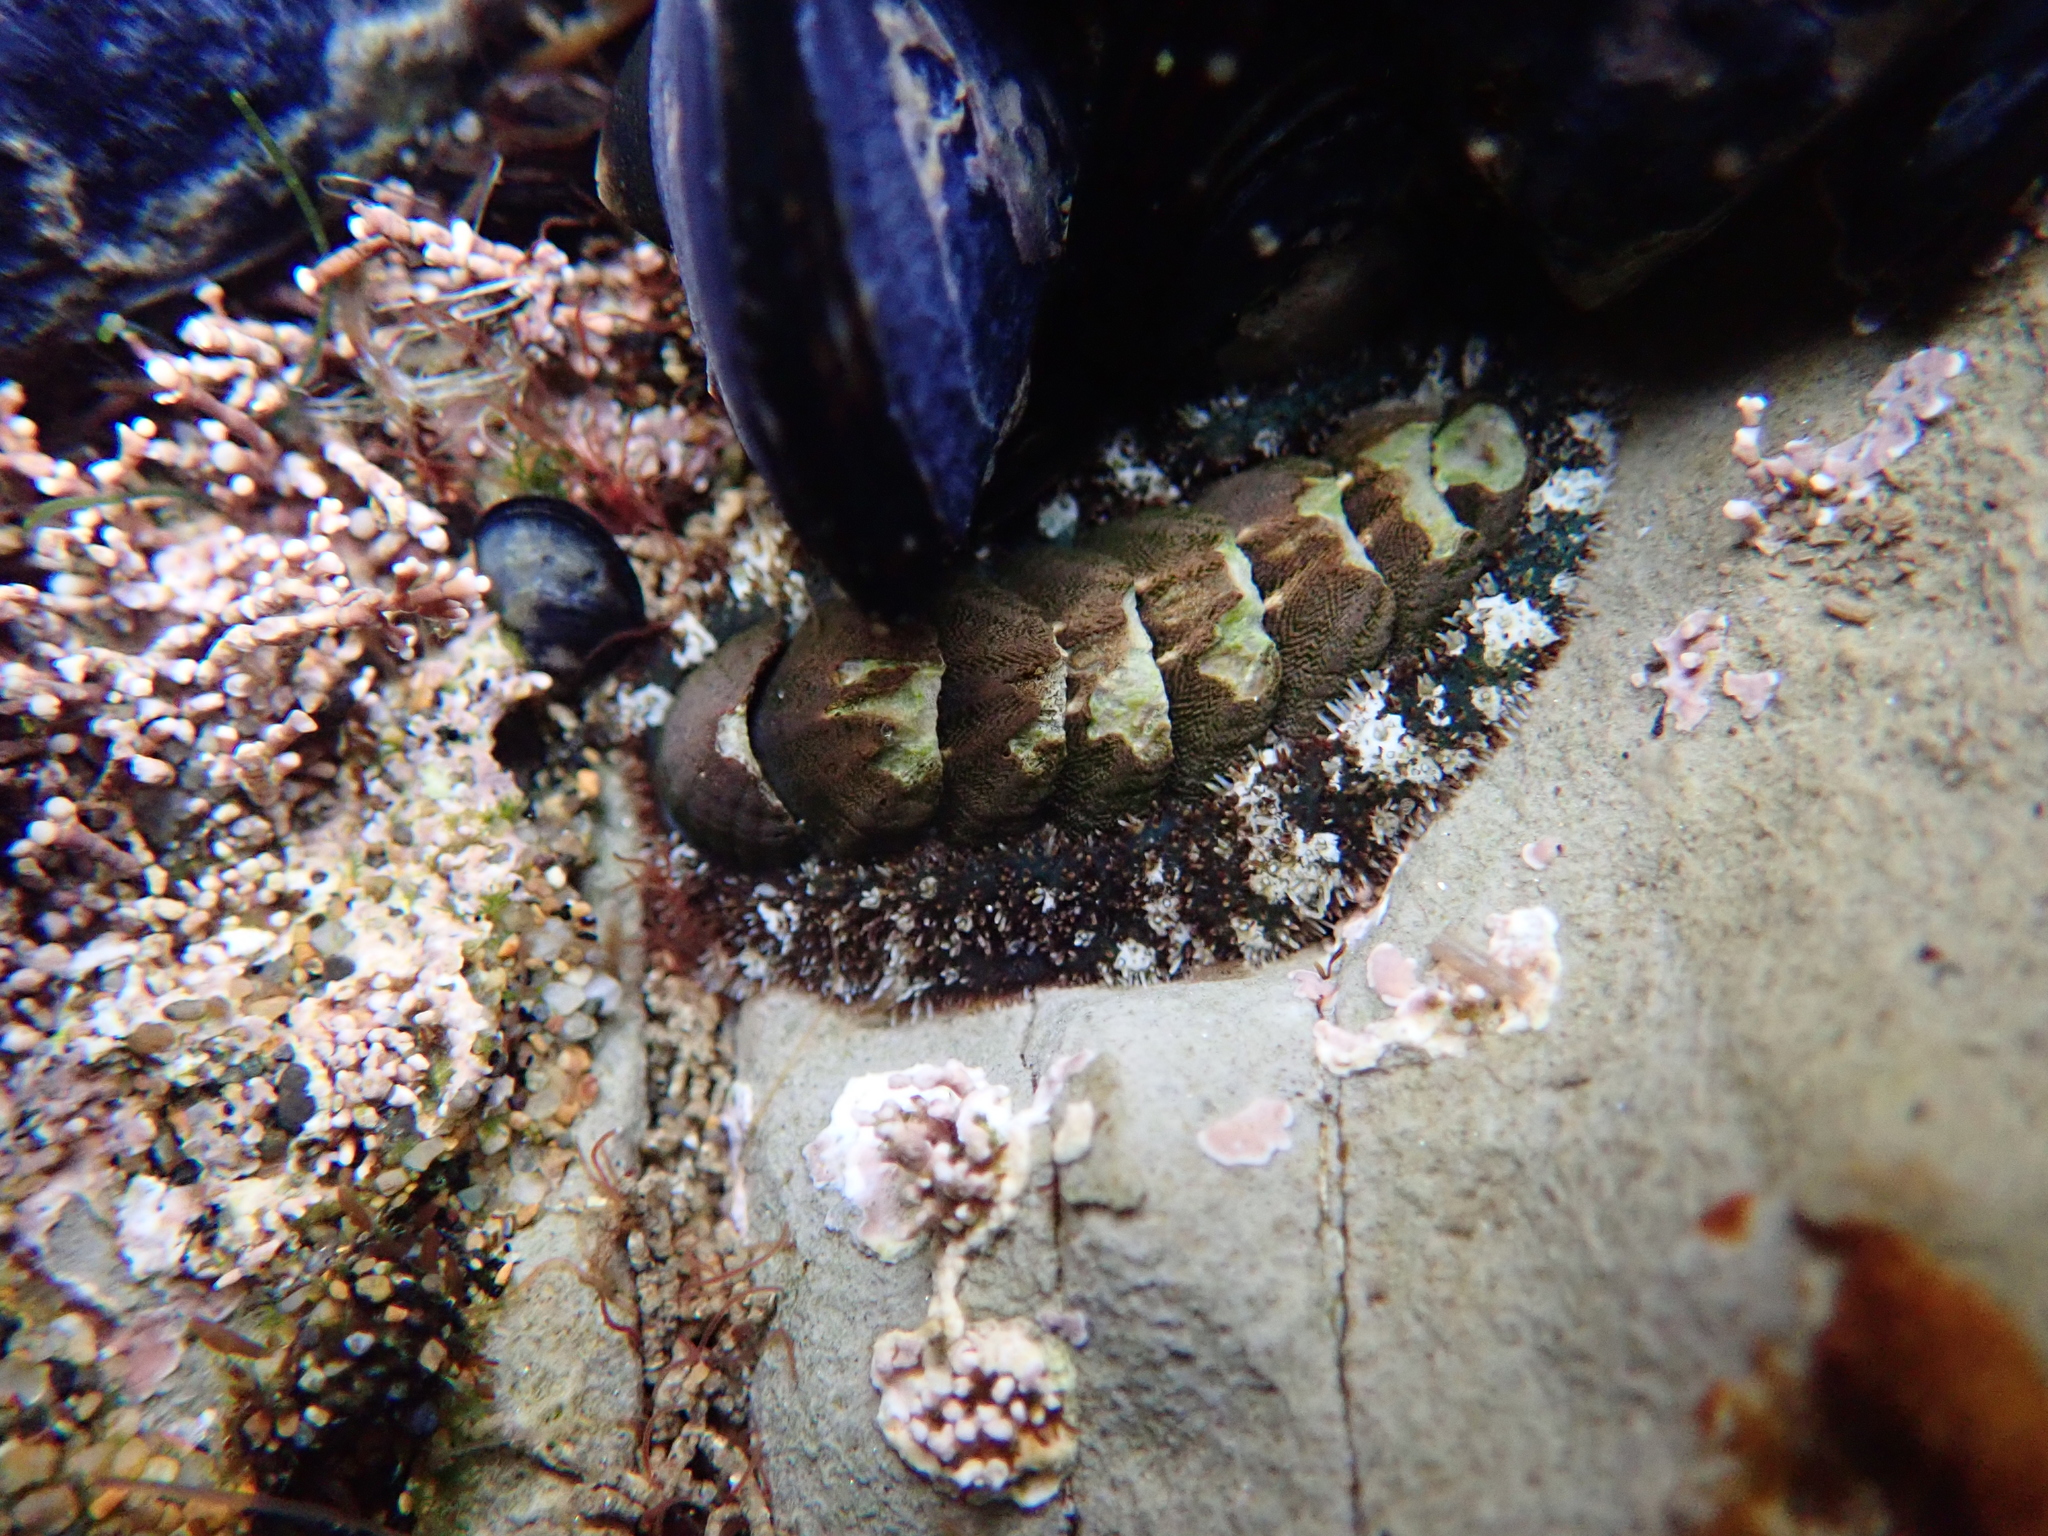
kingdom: Animalia
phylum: Mollusca
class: Polyplacophora
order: Chitonida
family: Tonicellidae
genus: Nuttallina
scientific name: Nuttallina californica
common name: California nuttall chiton
